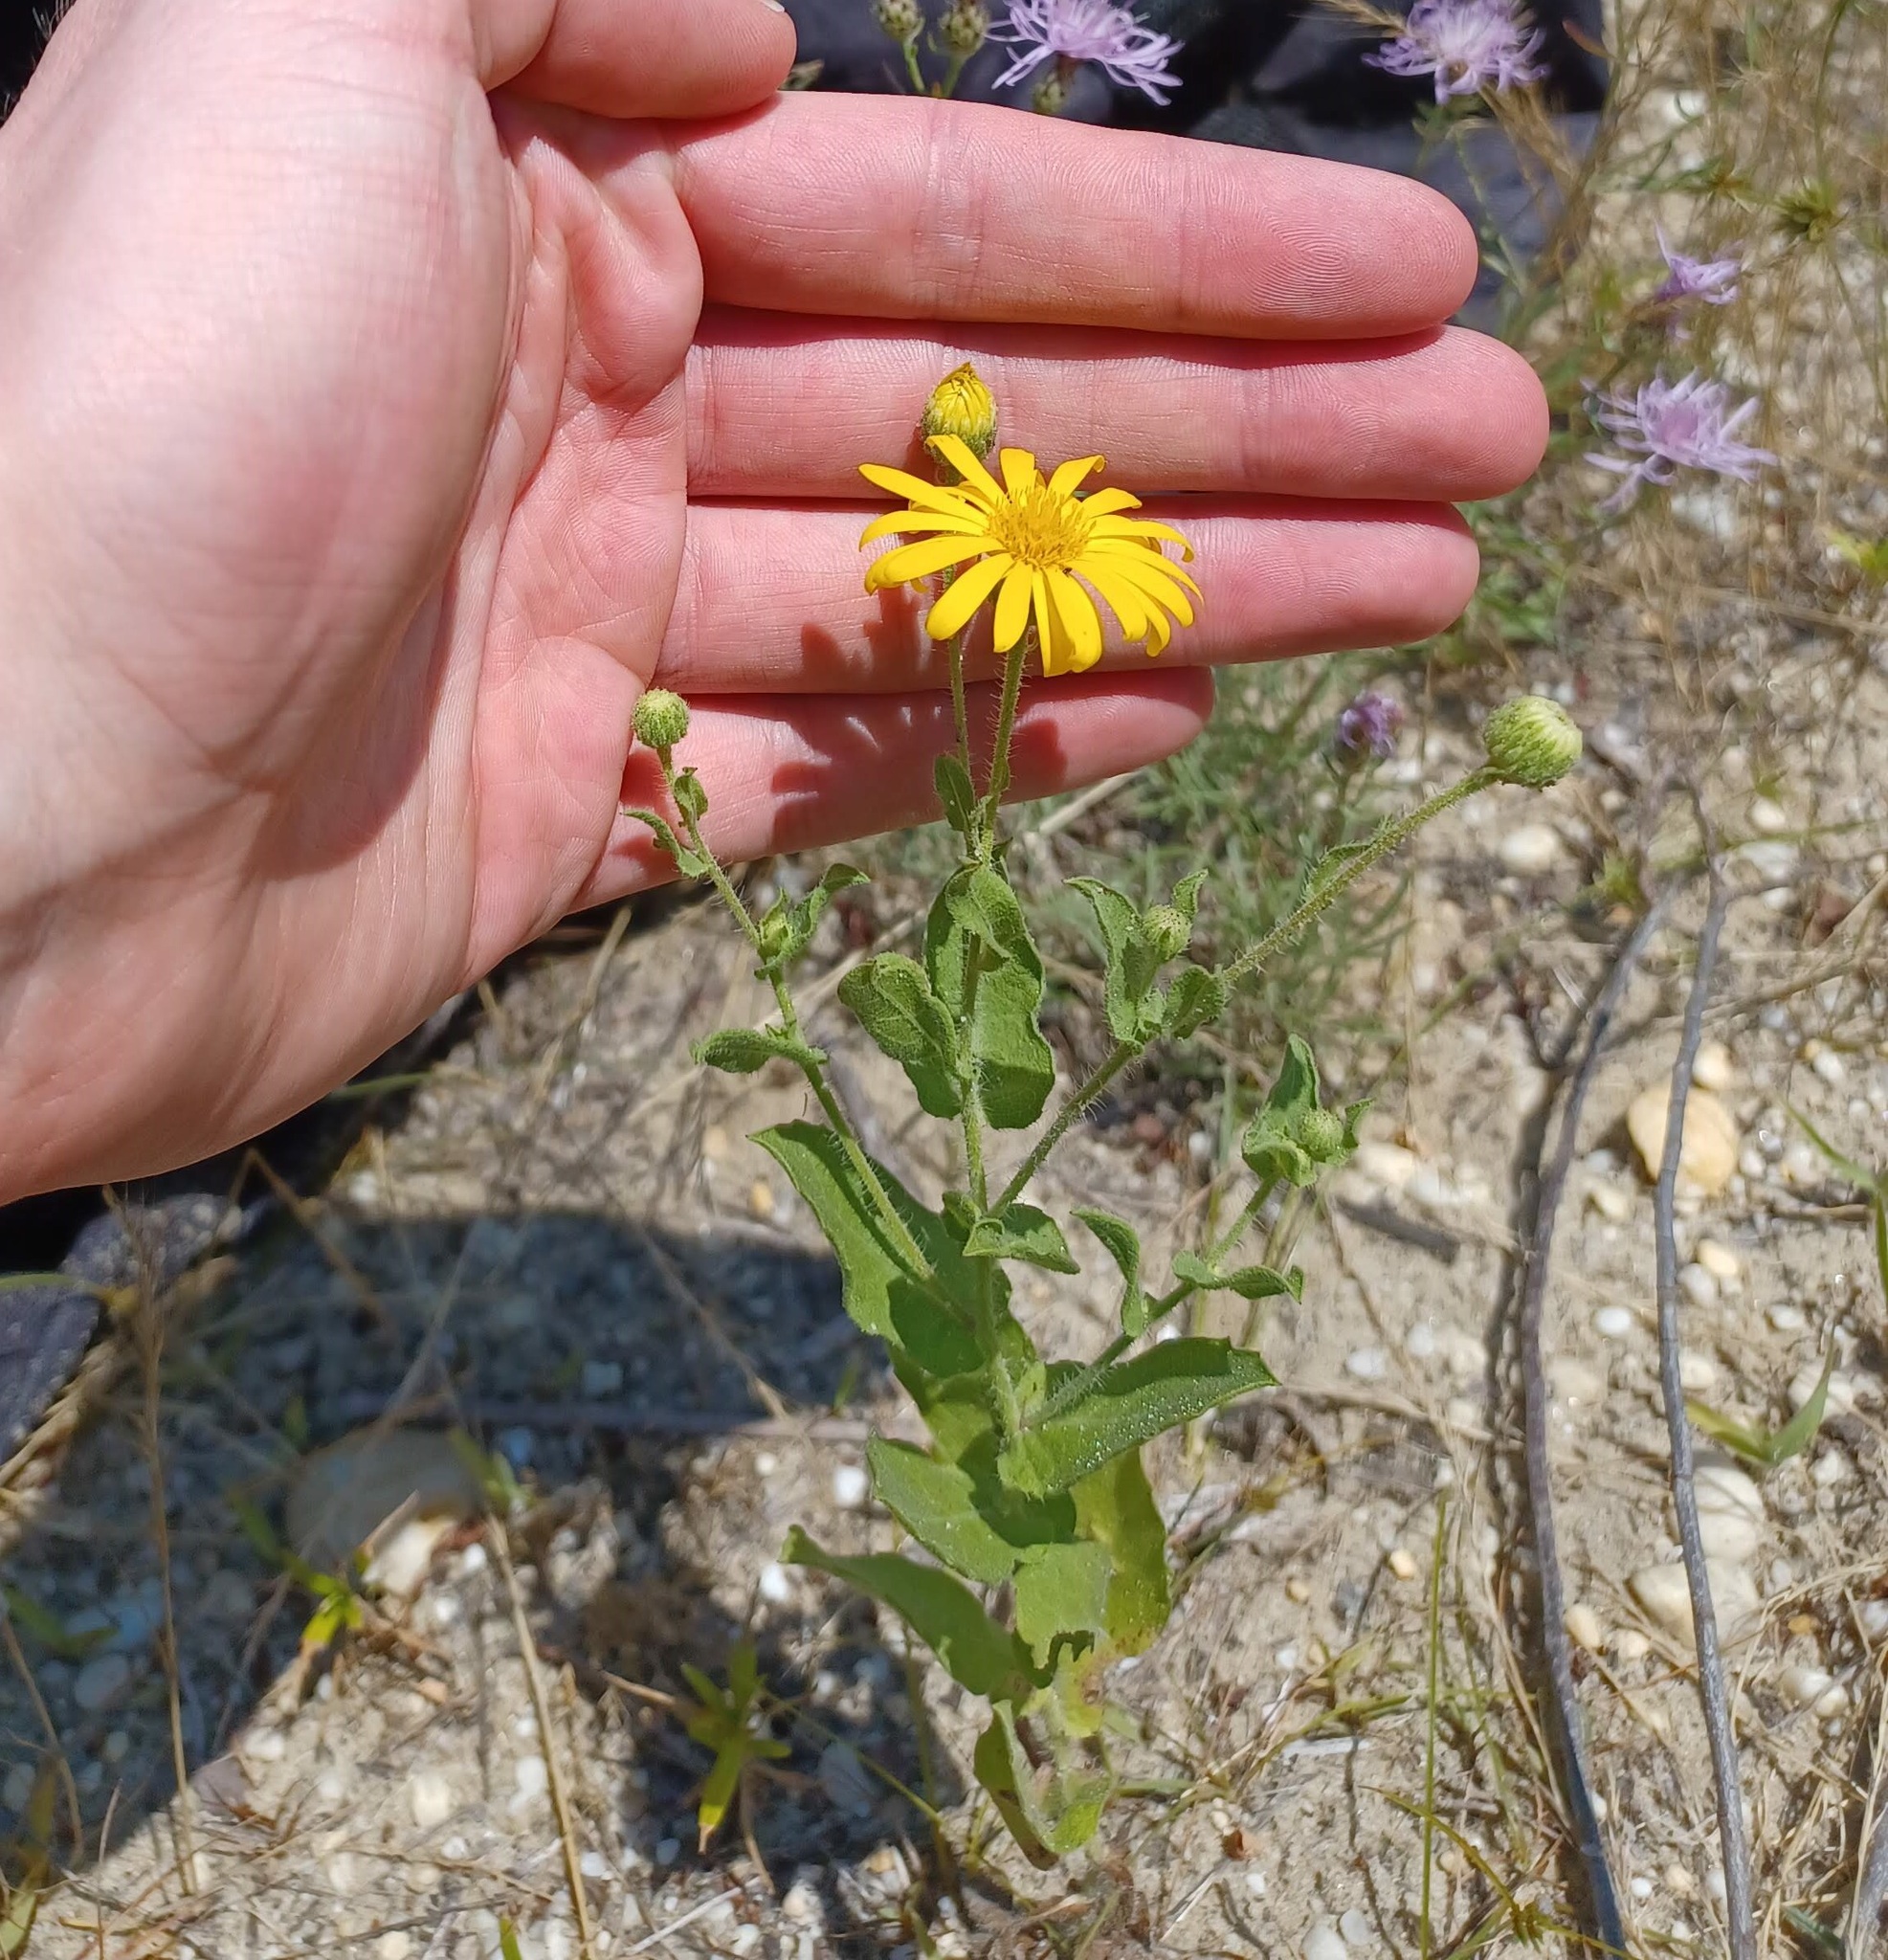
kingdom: Plantae
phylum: Tracheophyta
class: Magnoliopsida
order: Asterales
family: Asteraceae
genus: Heterotheca
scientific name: Heterotheca subaxillaris
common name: Camphorweed
